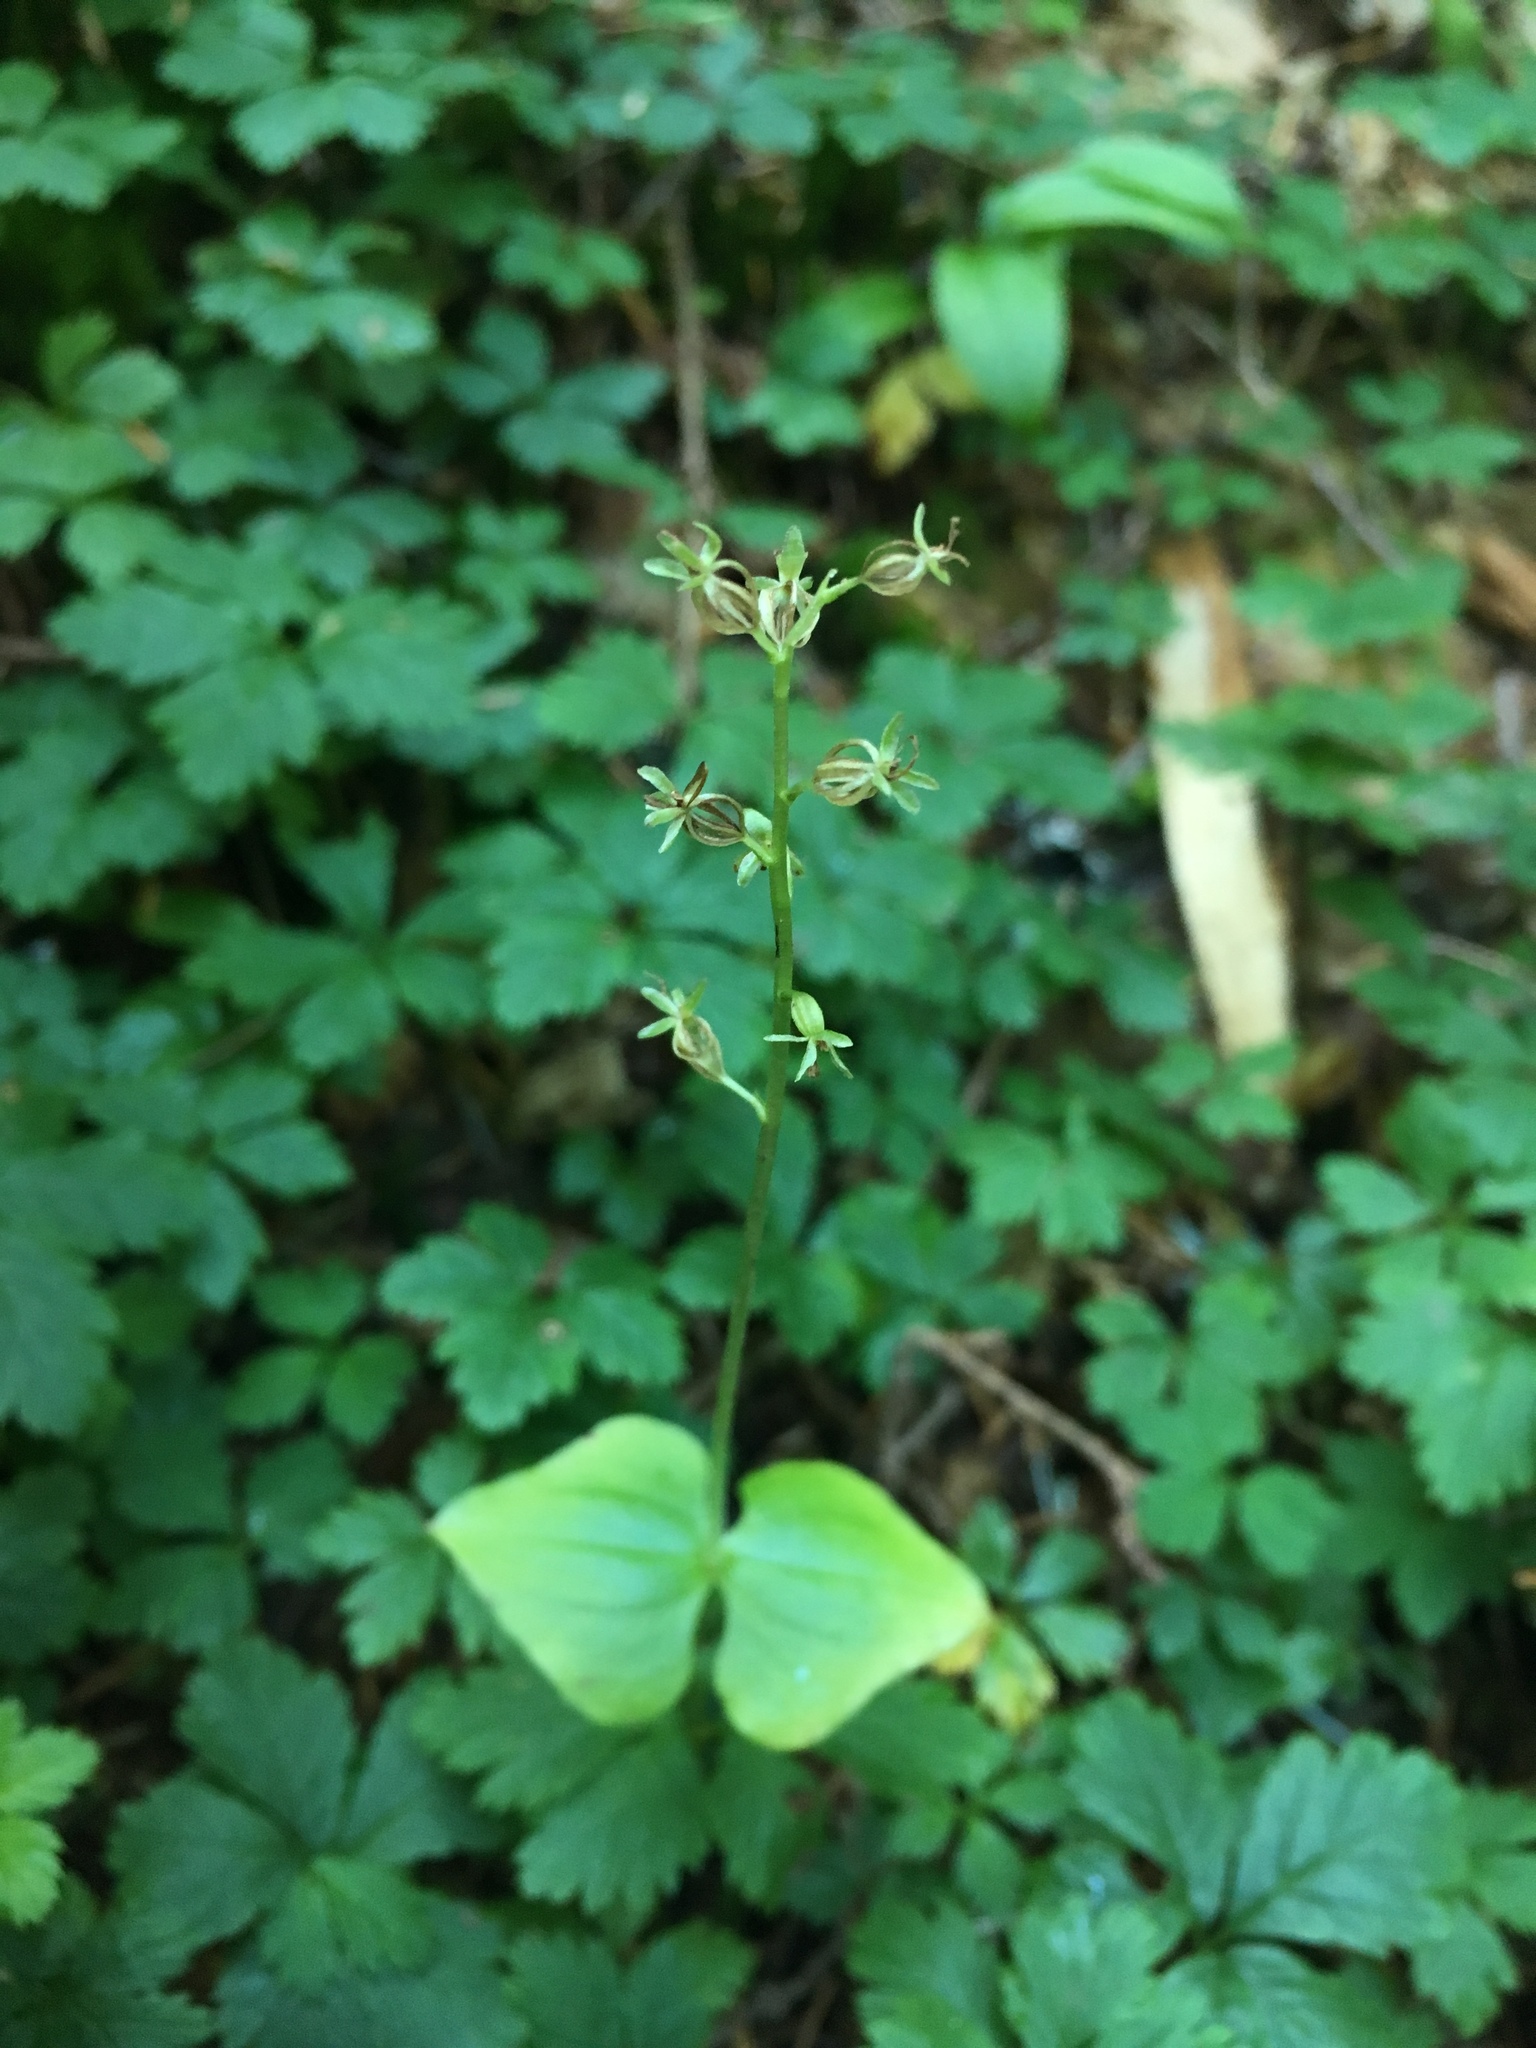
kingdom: Plantae
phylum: Tracheophyta
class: Liliopsida
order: Asparagales
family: Orchidaceae
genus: Neottia
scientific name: Neottia cordata
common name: Lesser twayblade
